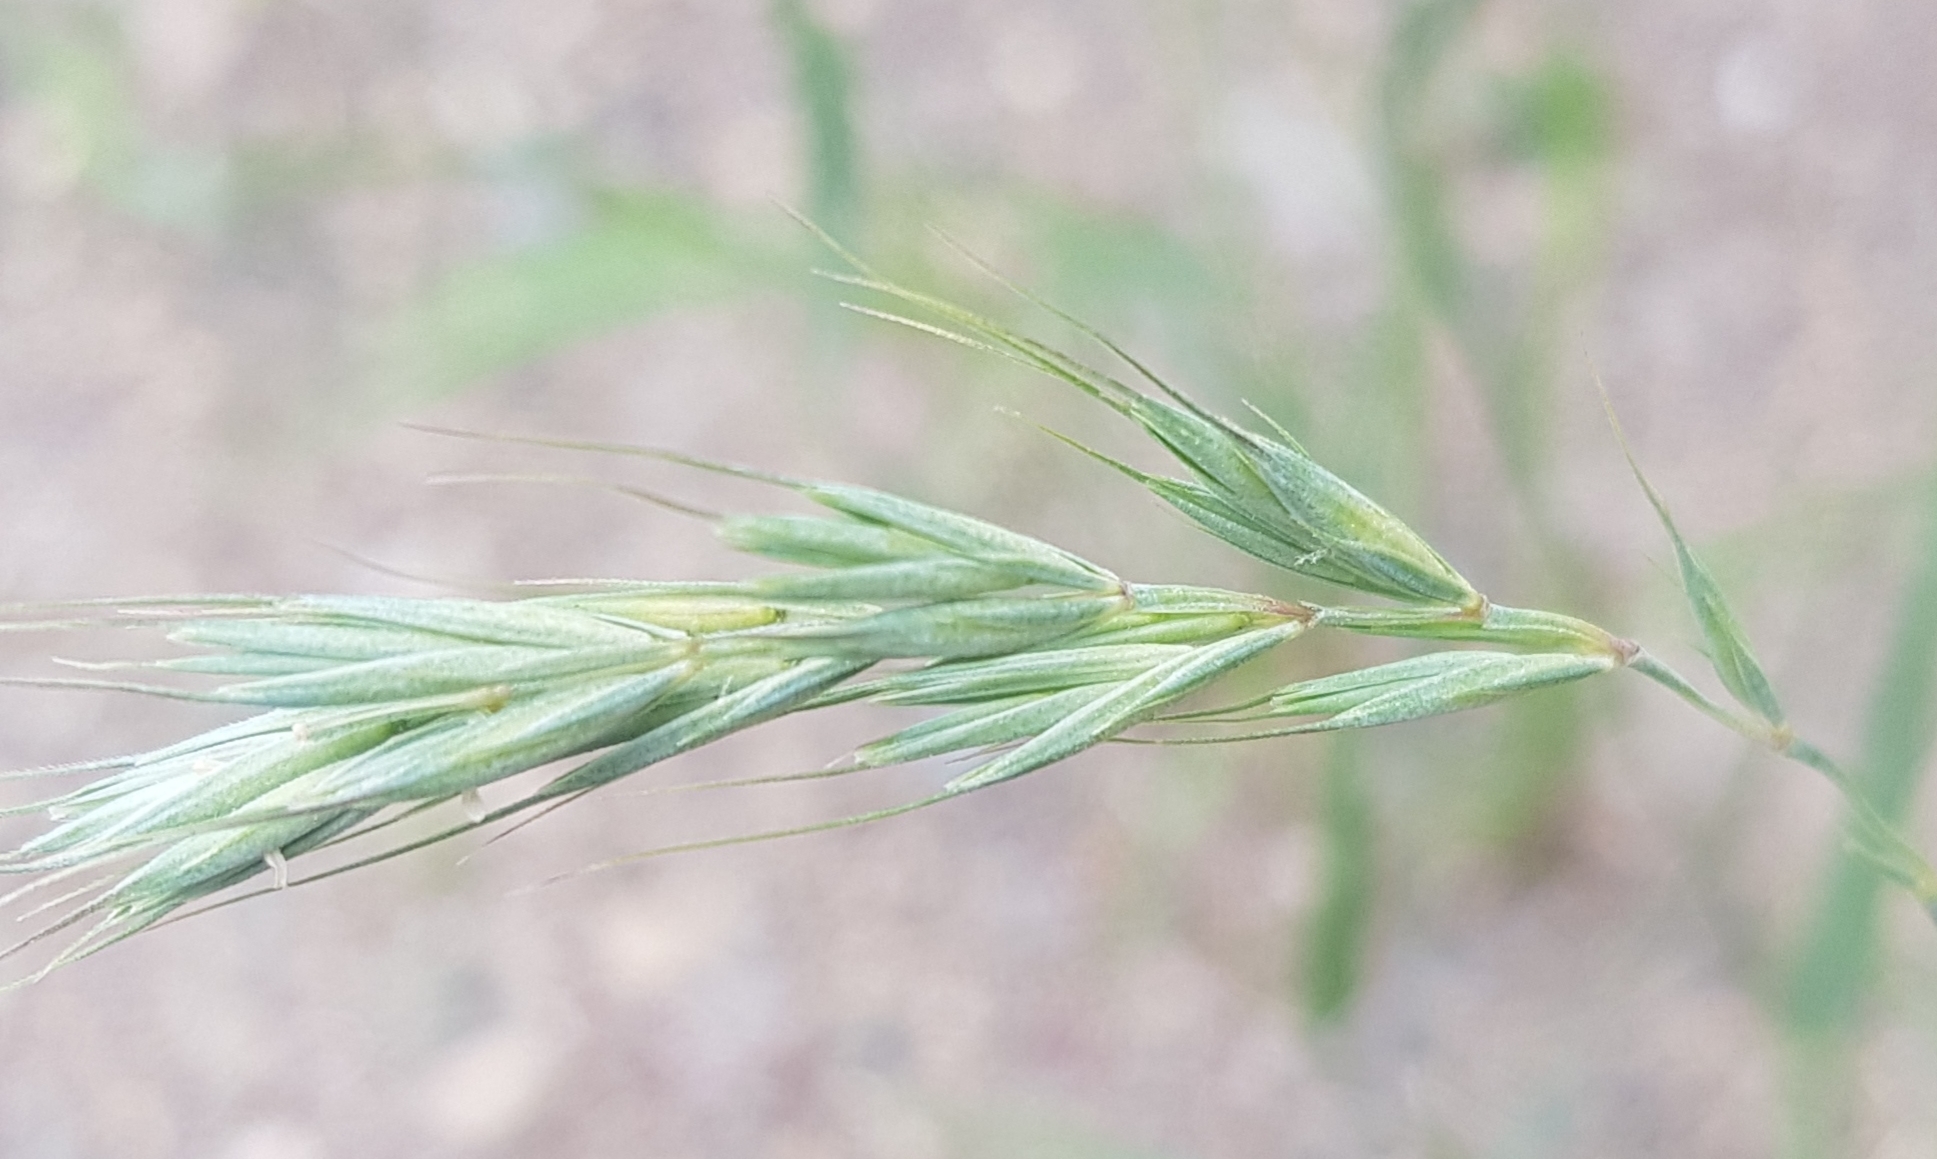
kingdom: Plantae
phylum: Tracheophyta
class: Liliopsida
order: Poales
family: Poaceae
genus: Elymus
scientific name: Elymus sibiricus
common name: Siberian wildrye
